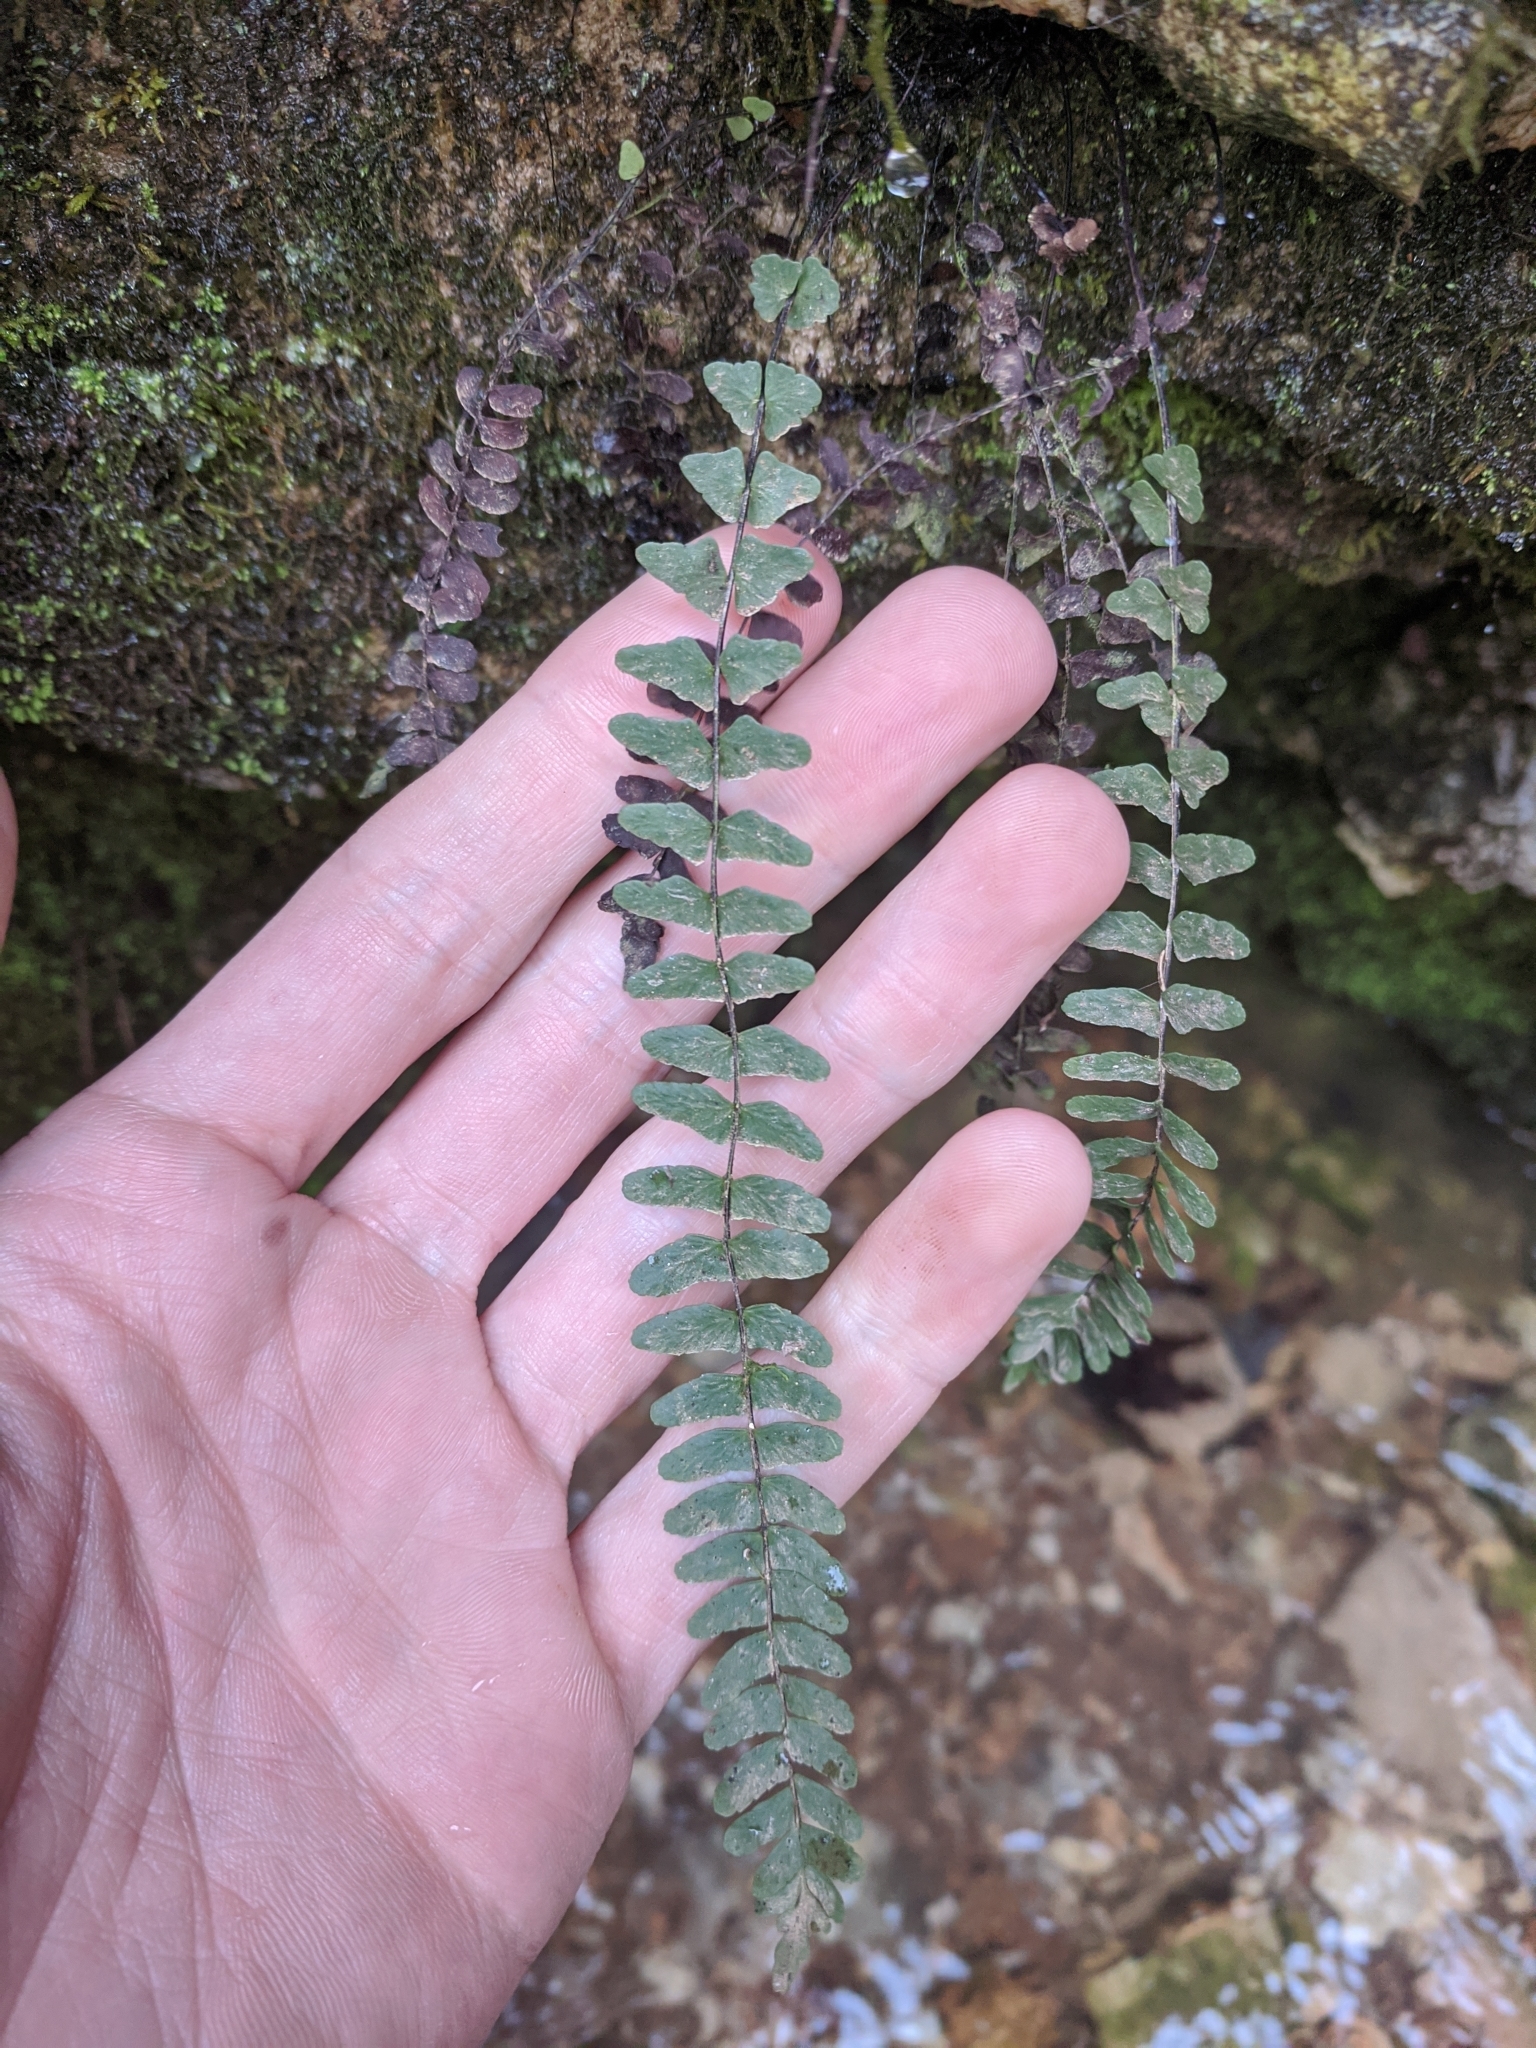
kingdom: Plantae
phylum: Tracheophyta
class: Polypodiopsida
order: Polypodiales
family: Aspleniaceae
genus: Asplenium
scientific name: Asplenium resiliens
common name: Blackstem spleenwort
